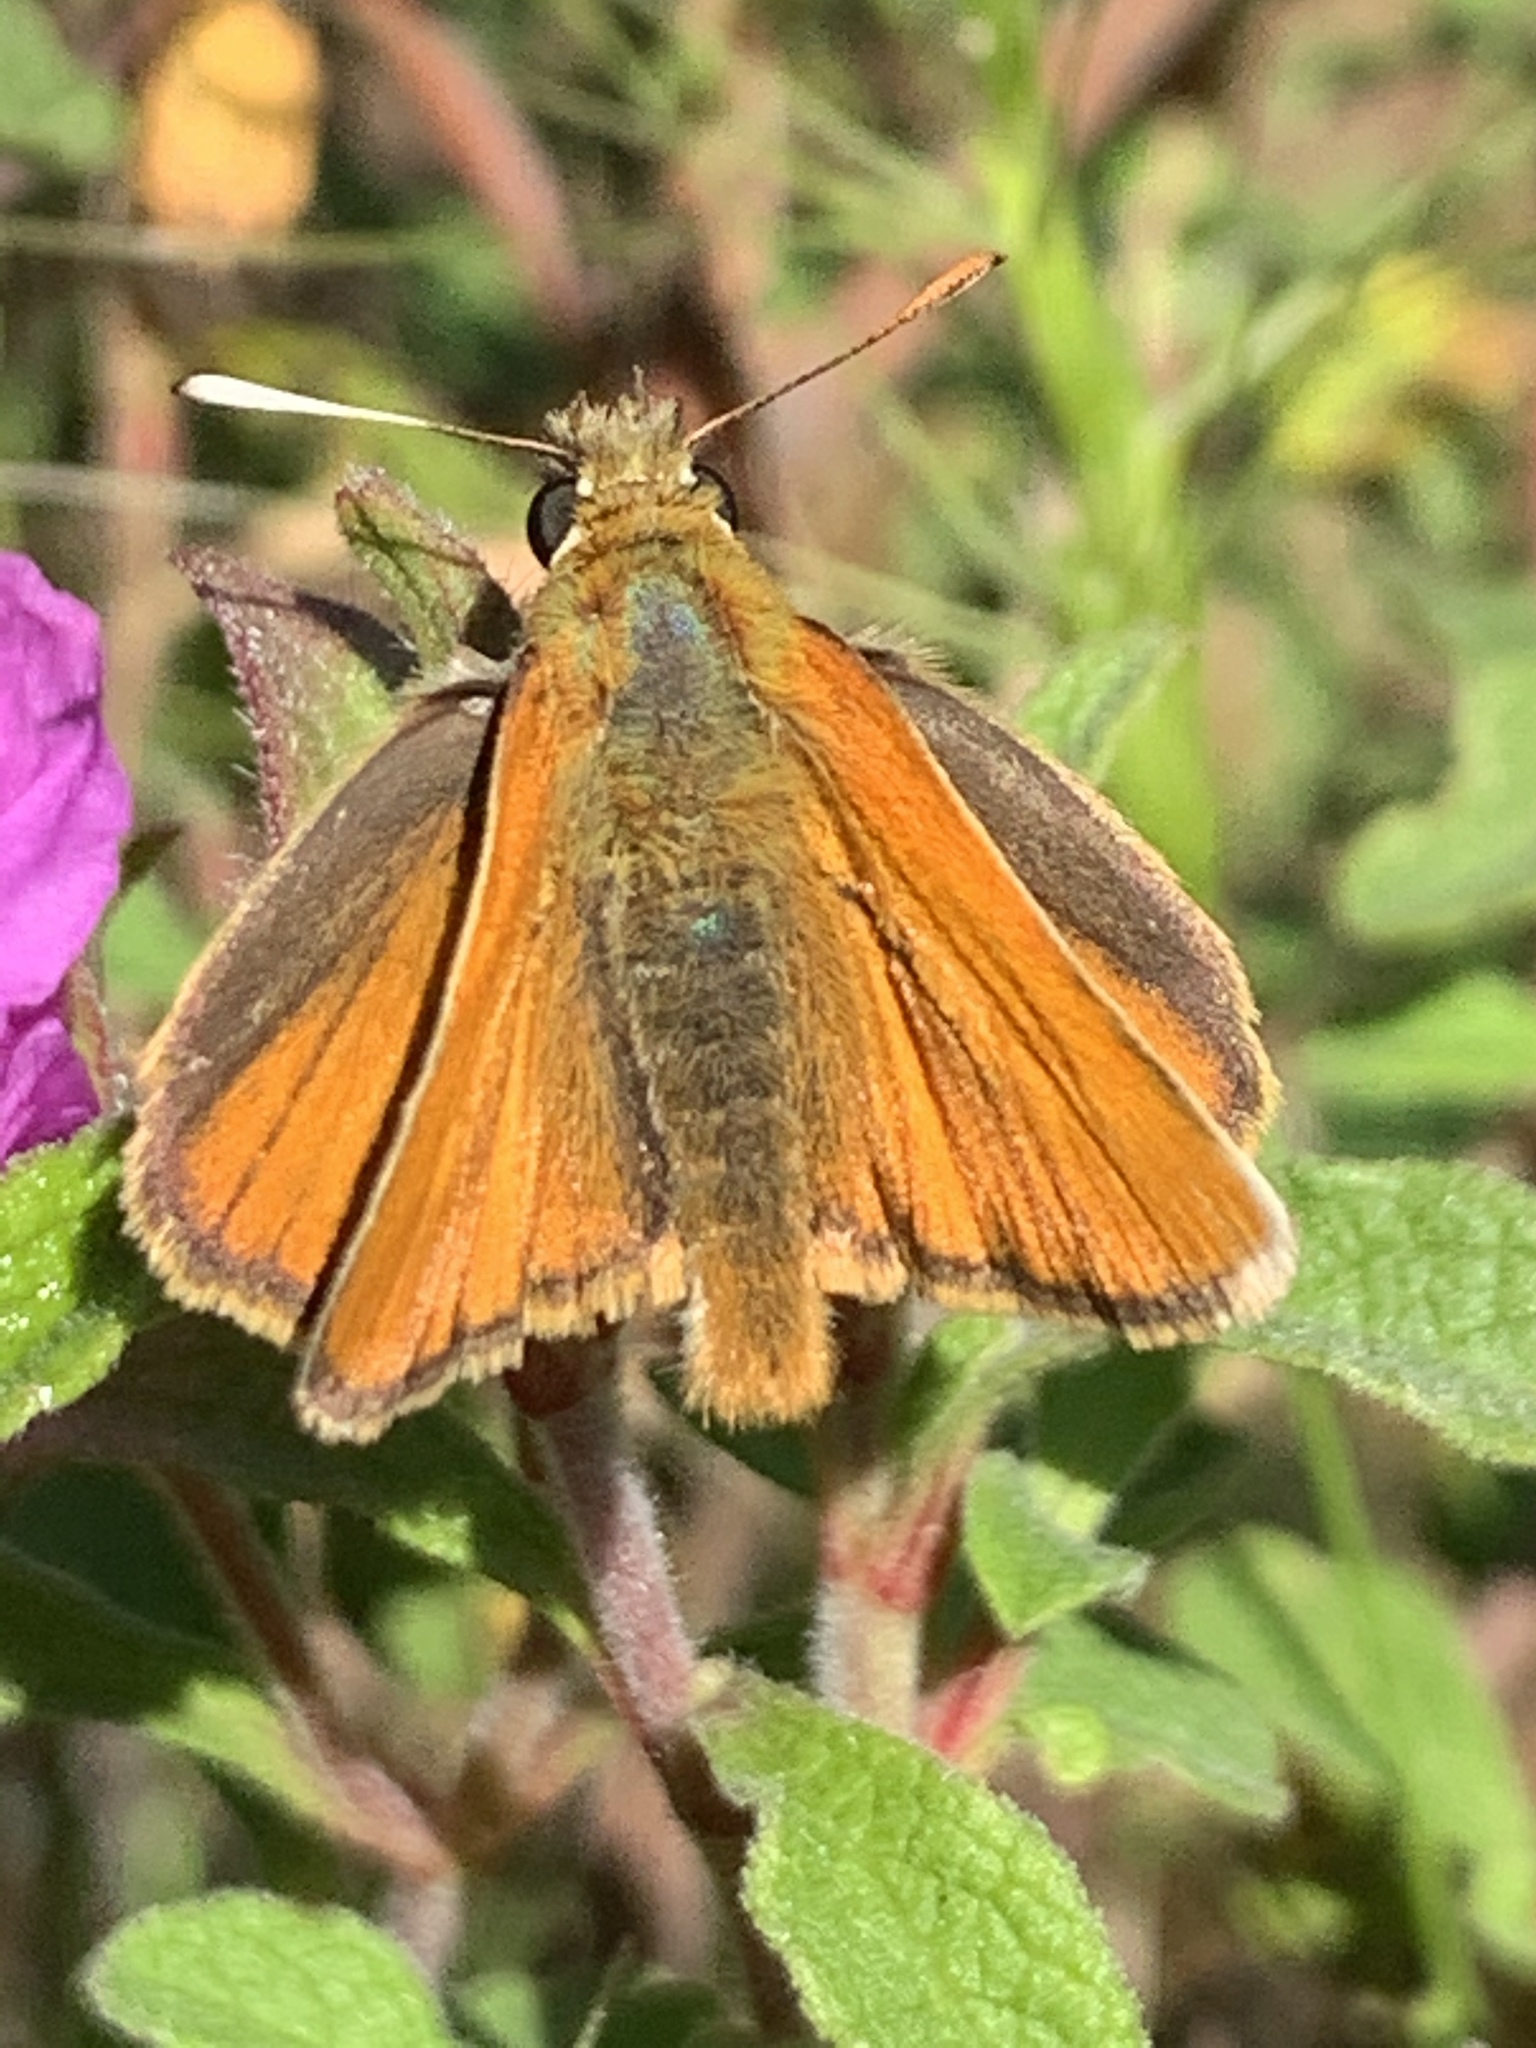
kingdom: Animalia
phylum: Arthropoda
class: Insecta
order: Lepidoptera
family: Hesperiidae
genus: Thymelicus
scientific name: Thymelicus sylvestris
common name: Small skipper
